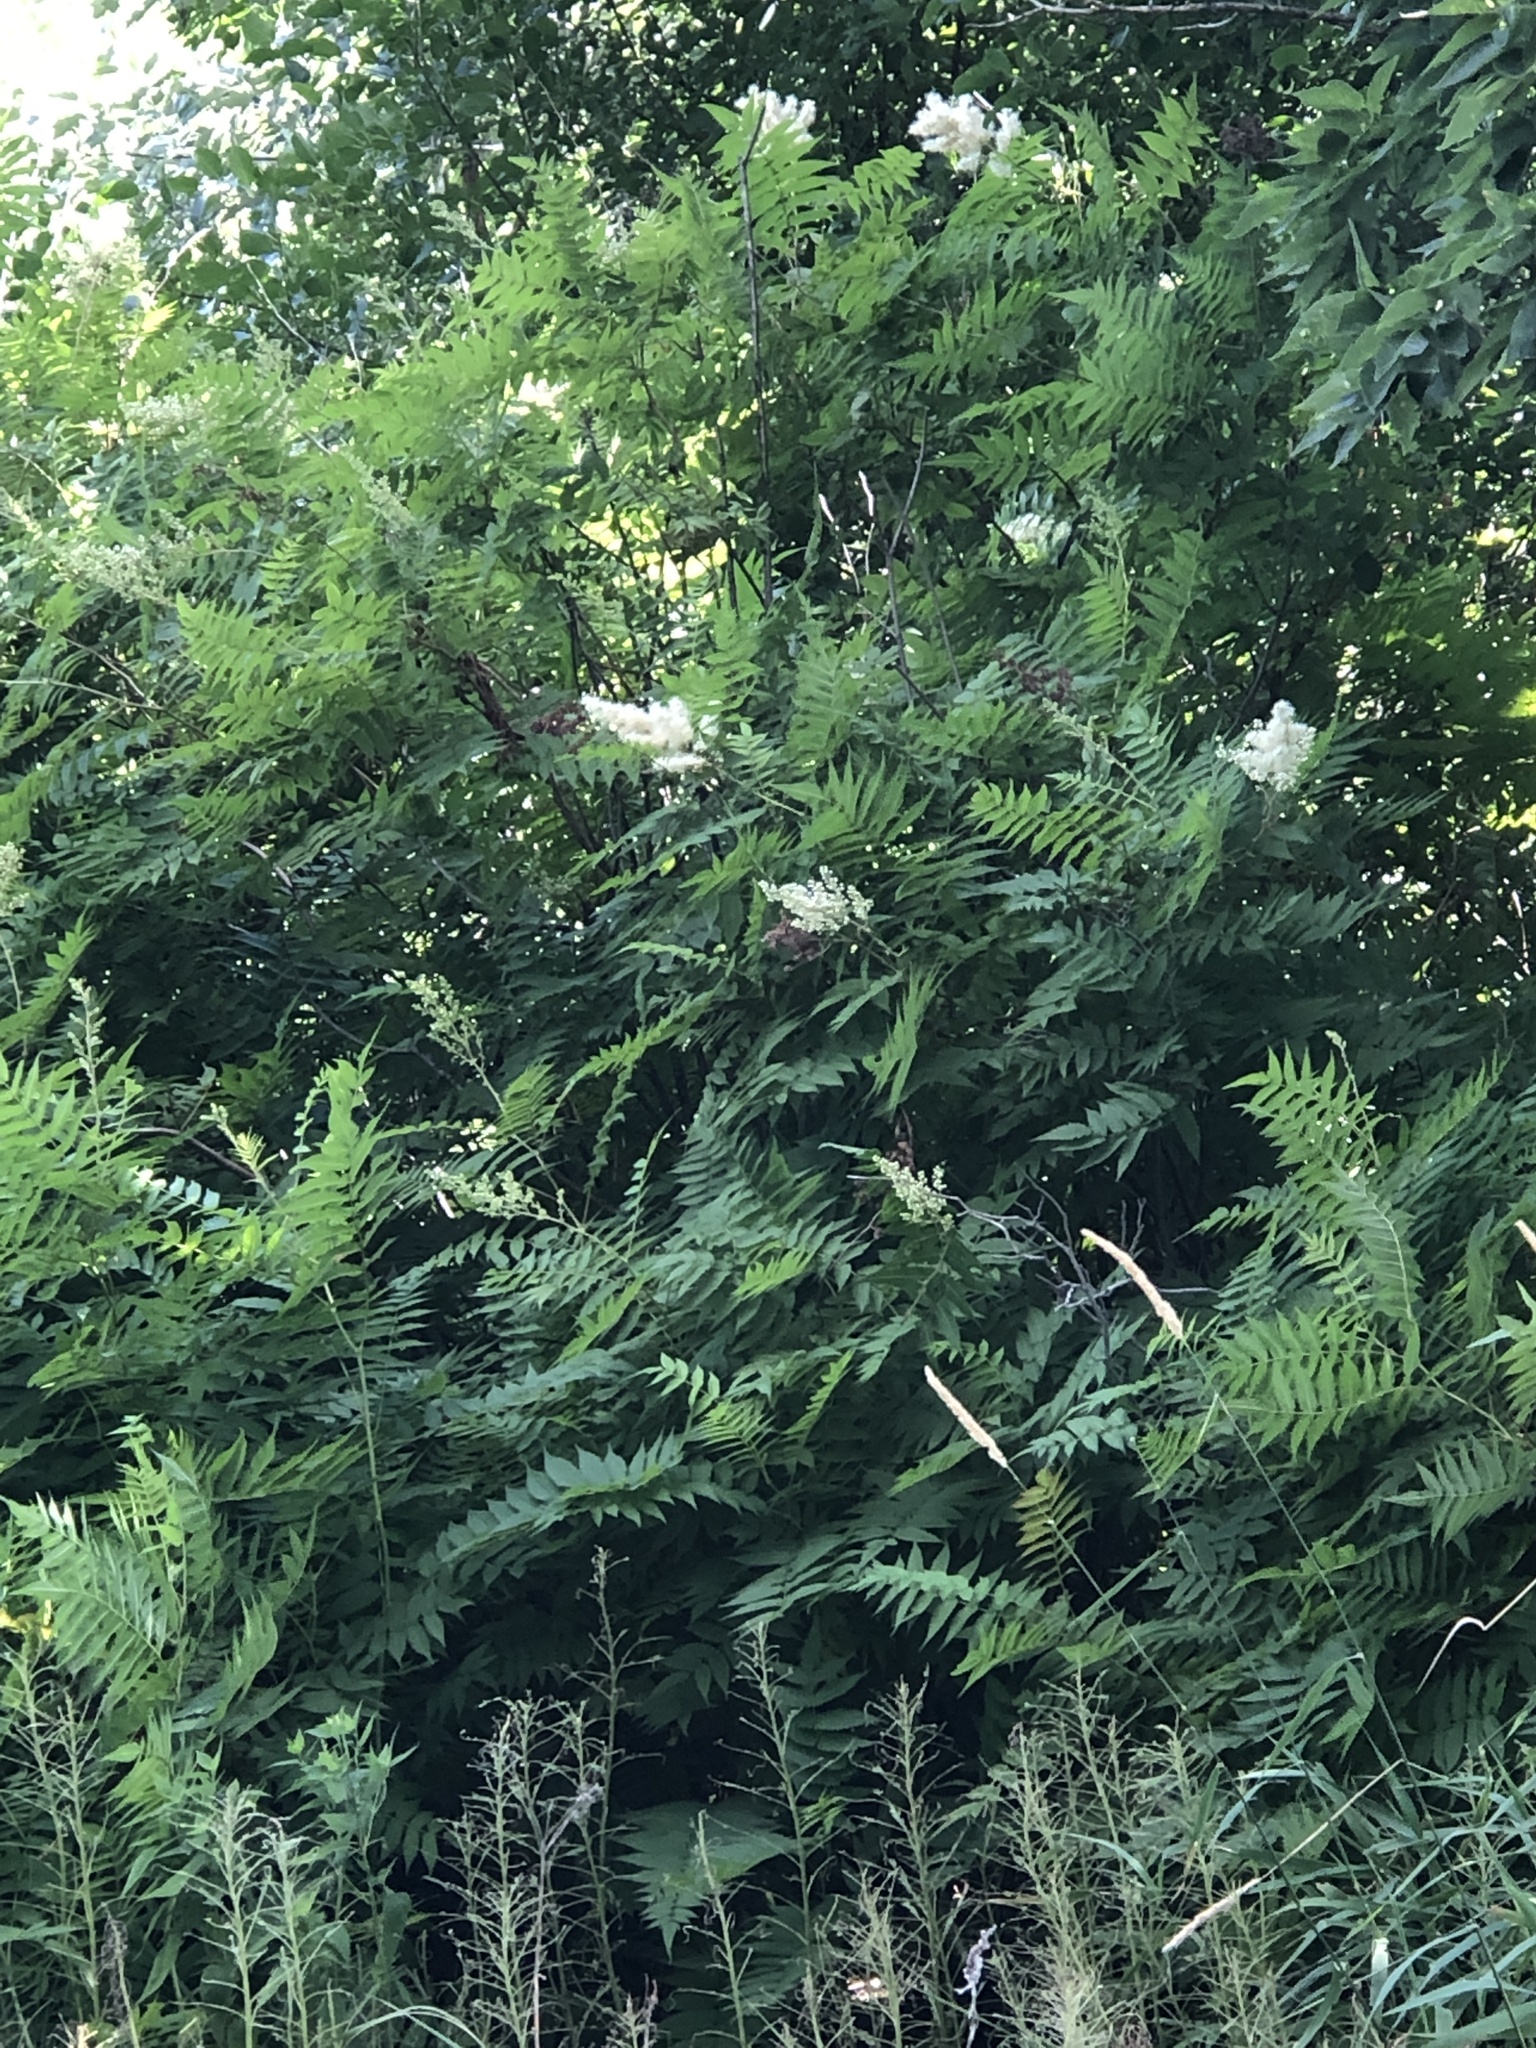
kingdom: Plantae
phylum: Tracheophyta
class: Magnoliopsida
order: Rosales
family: Rosaceae
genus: Sorbaria
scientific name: Sorbaria sorbifolia
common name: False spiraea
